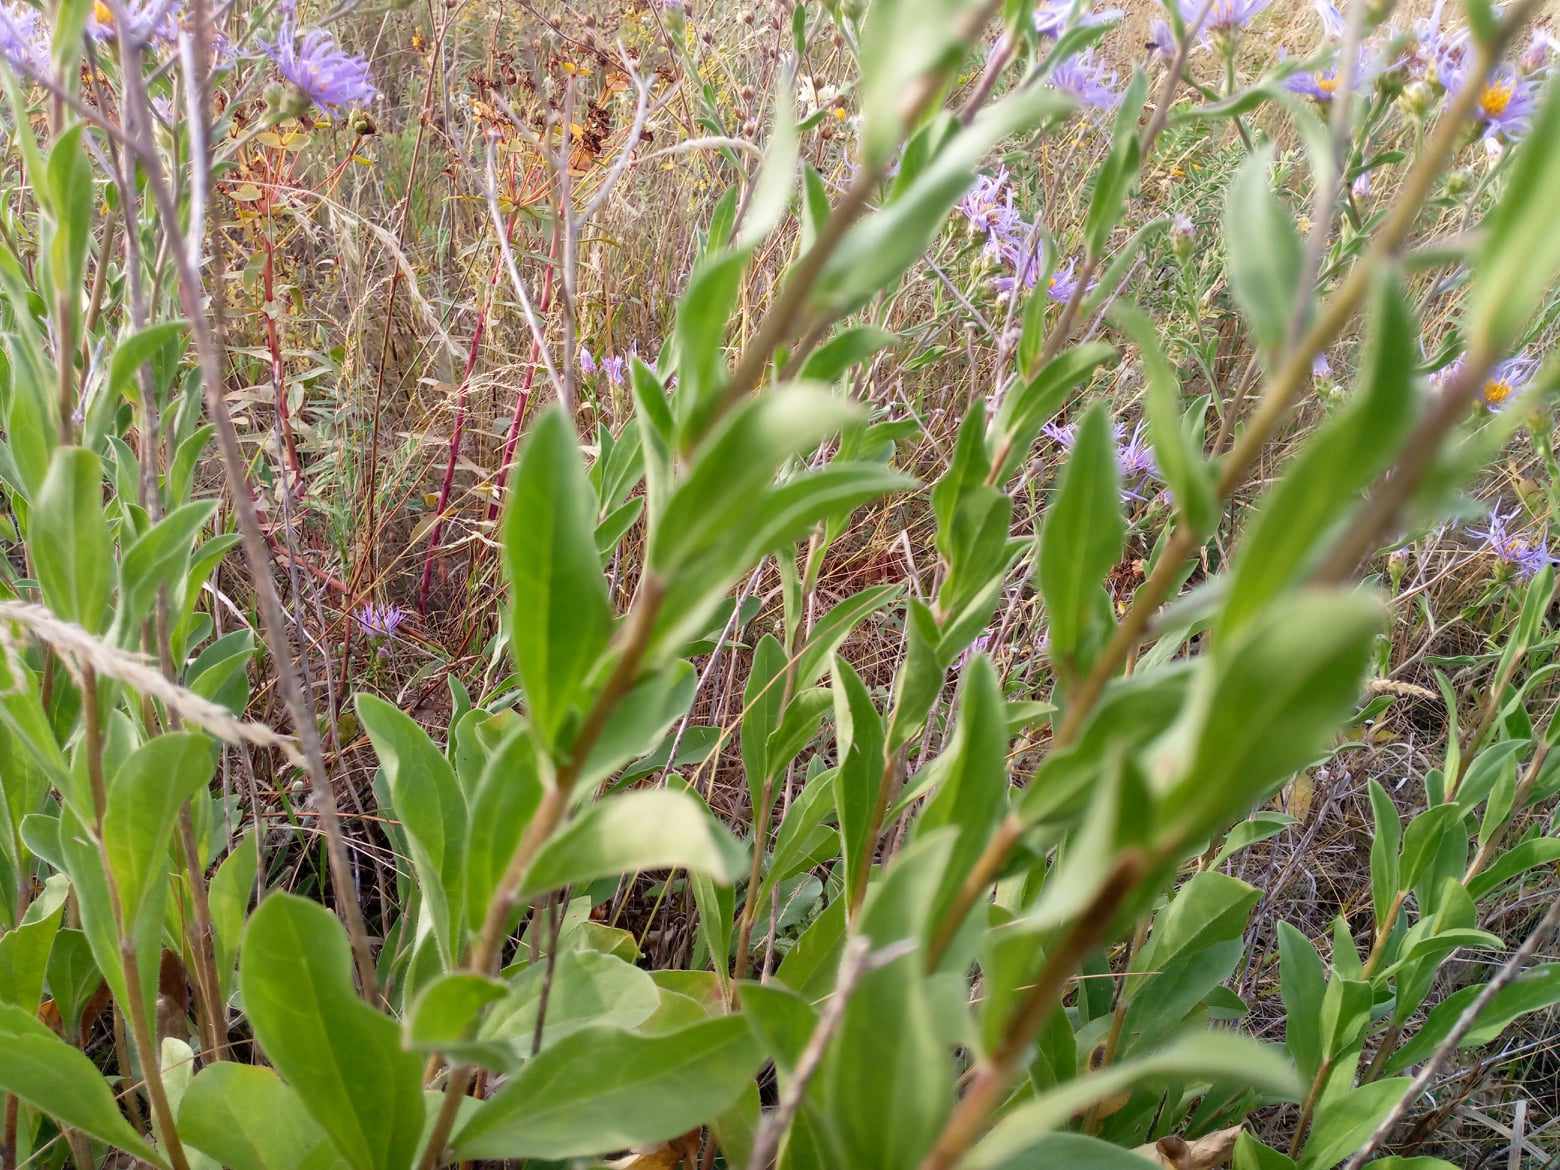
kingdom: Plantae
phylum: Tracheophyta
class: Magnoliopsida
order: Asterales
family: Asteraceae
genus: Aster
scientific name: Aster amellus
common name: European michaelmas daisy
